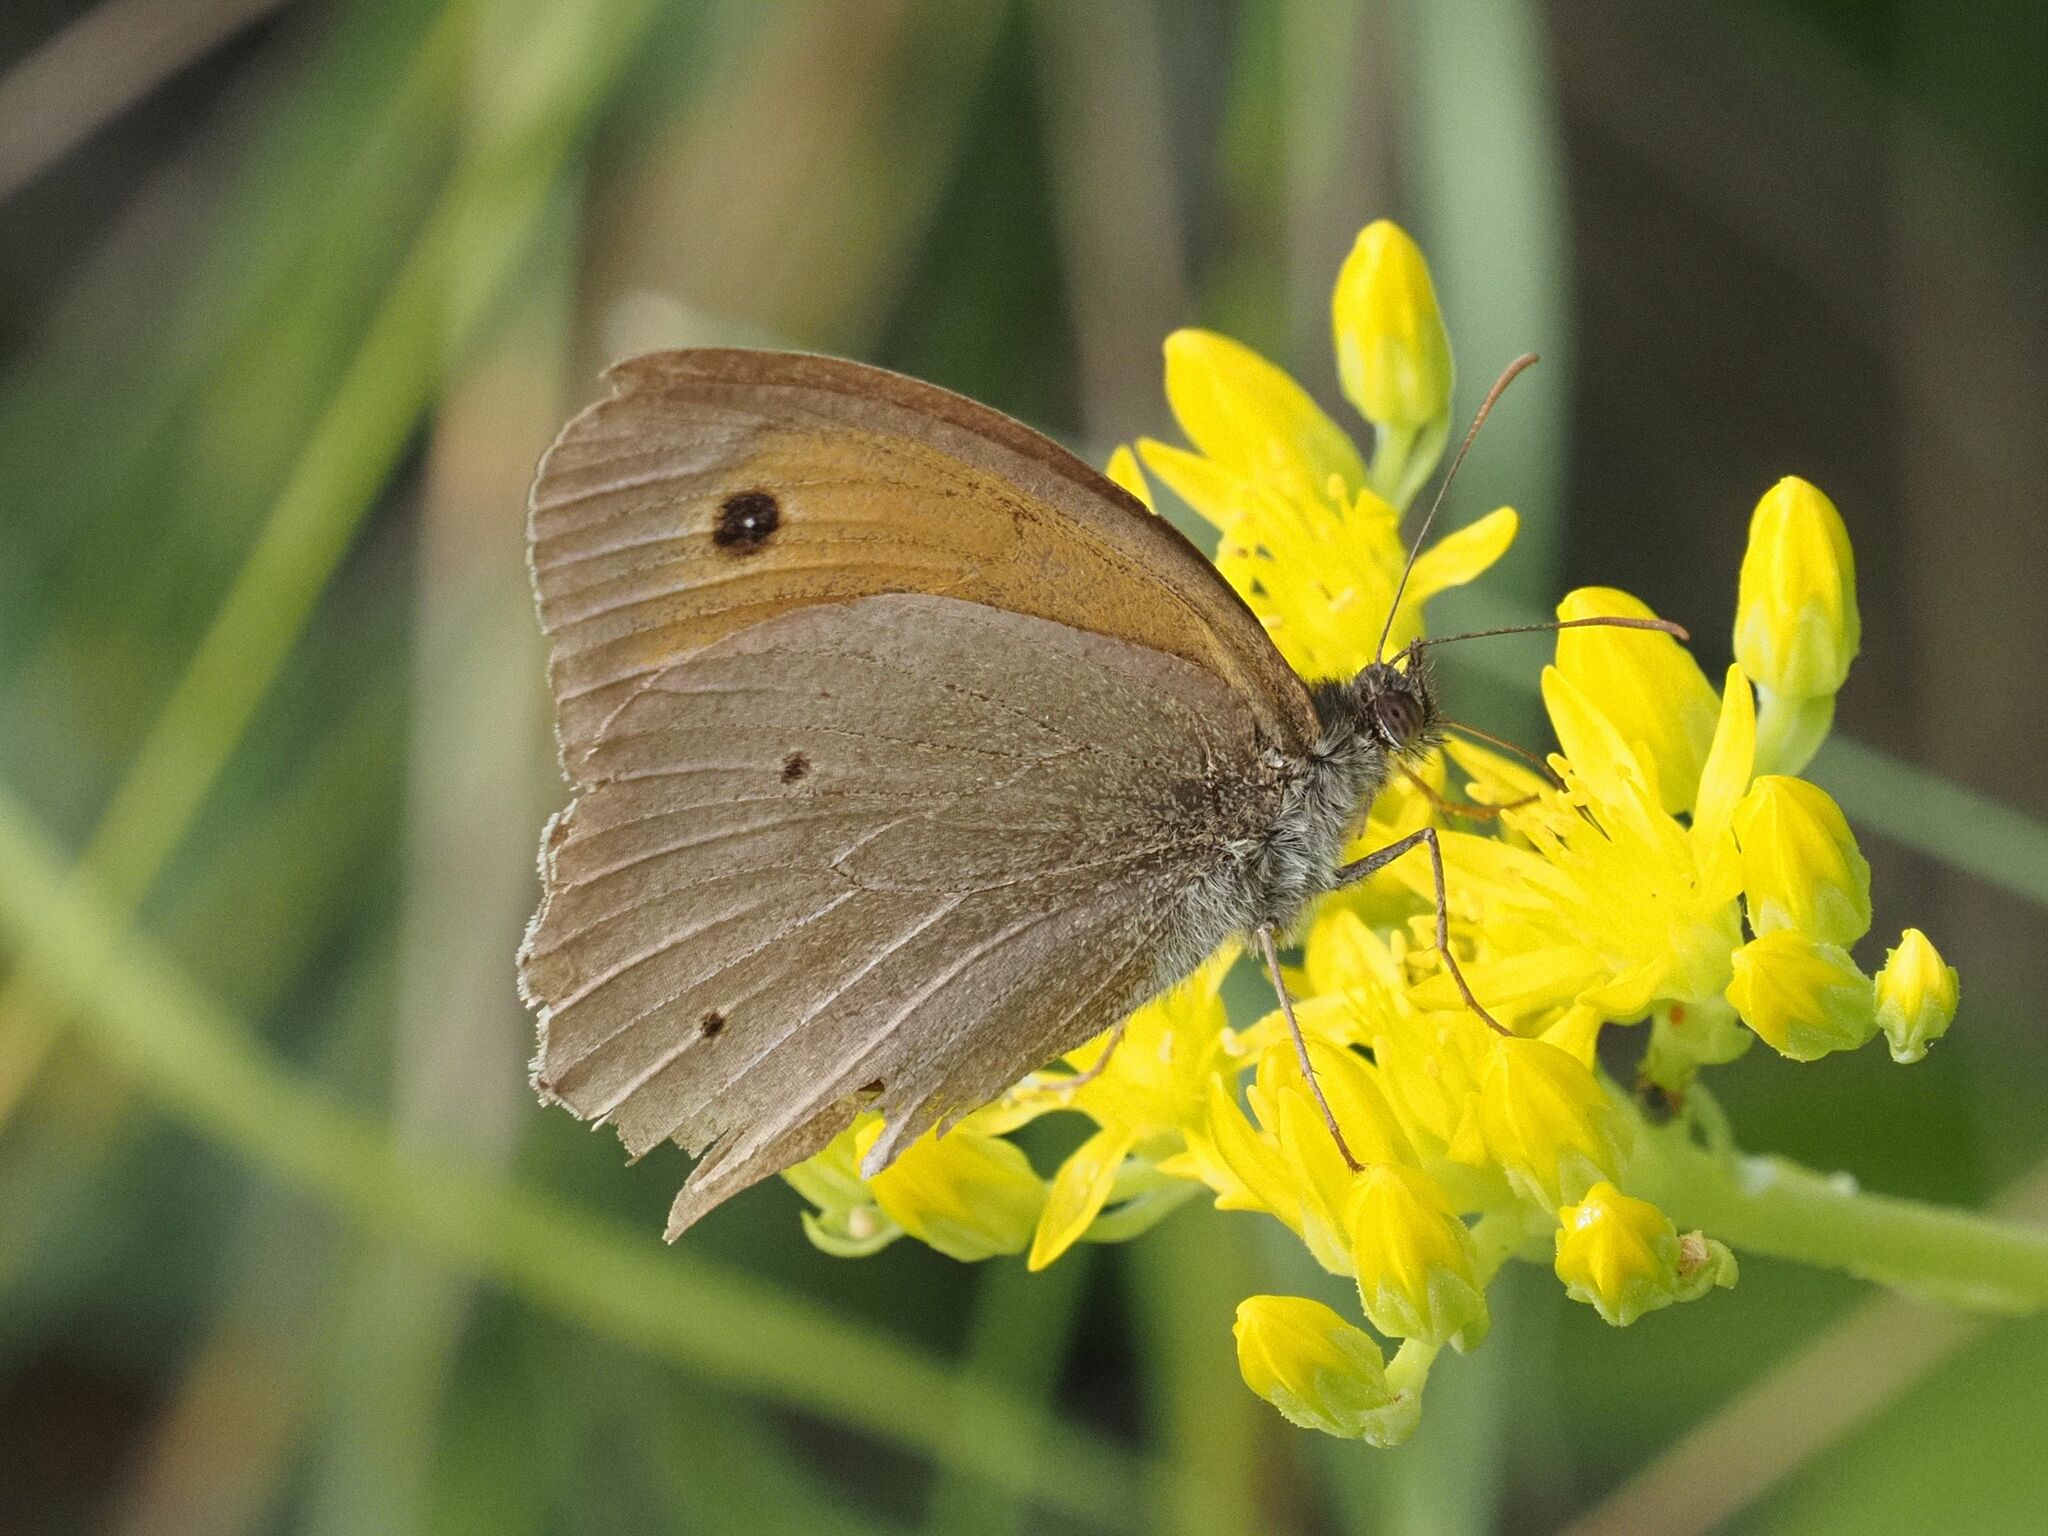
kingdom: Animalia
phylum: Arthropoda
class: Insecta
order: Lepidoptera
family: Nymphalidae
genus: Maniola
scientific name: Maniola jurtina
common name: Meadow brown
